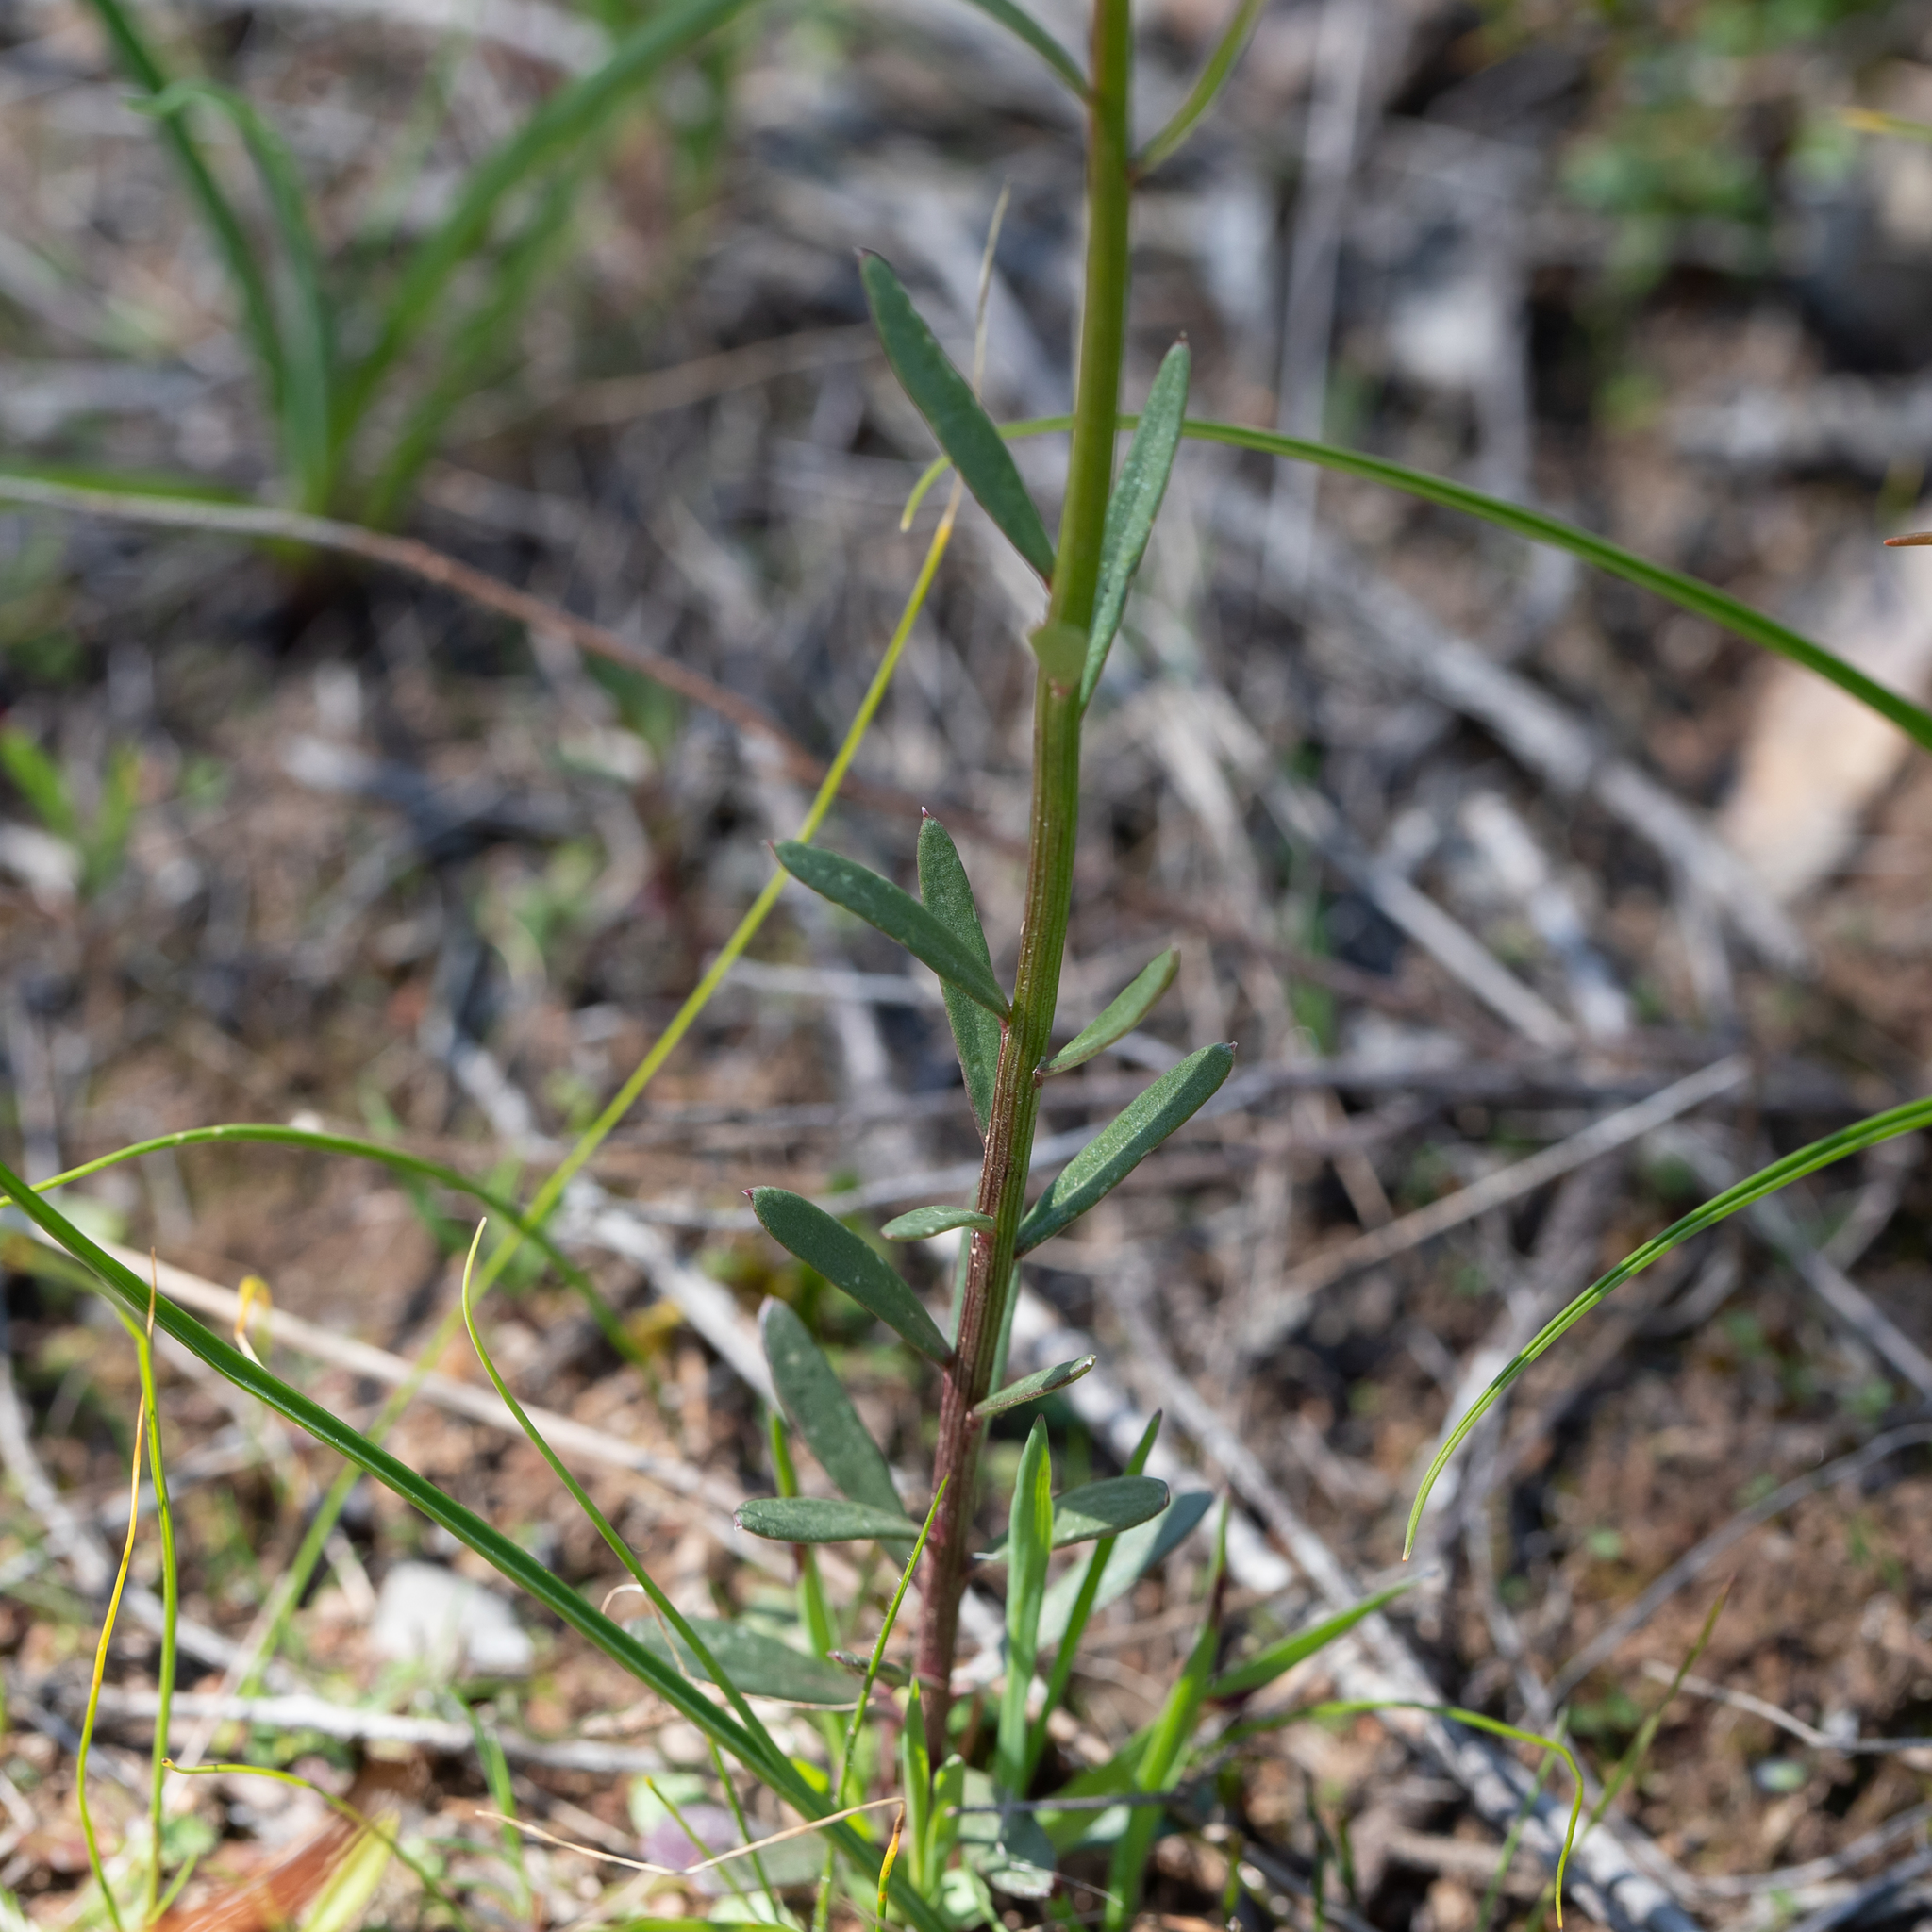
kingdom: Plantae
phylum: Tracheophyta
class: Magnoliopsida
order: Celastrales
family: Celastraceae
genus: Stackhousia
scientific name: Stackhousia subterranea
